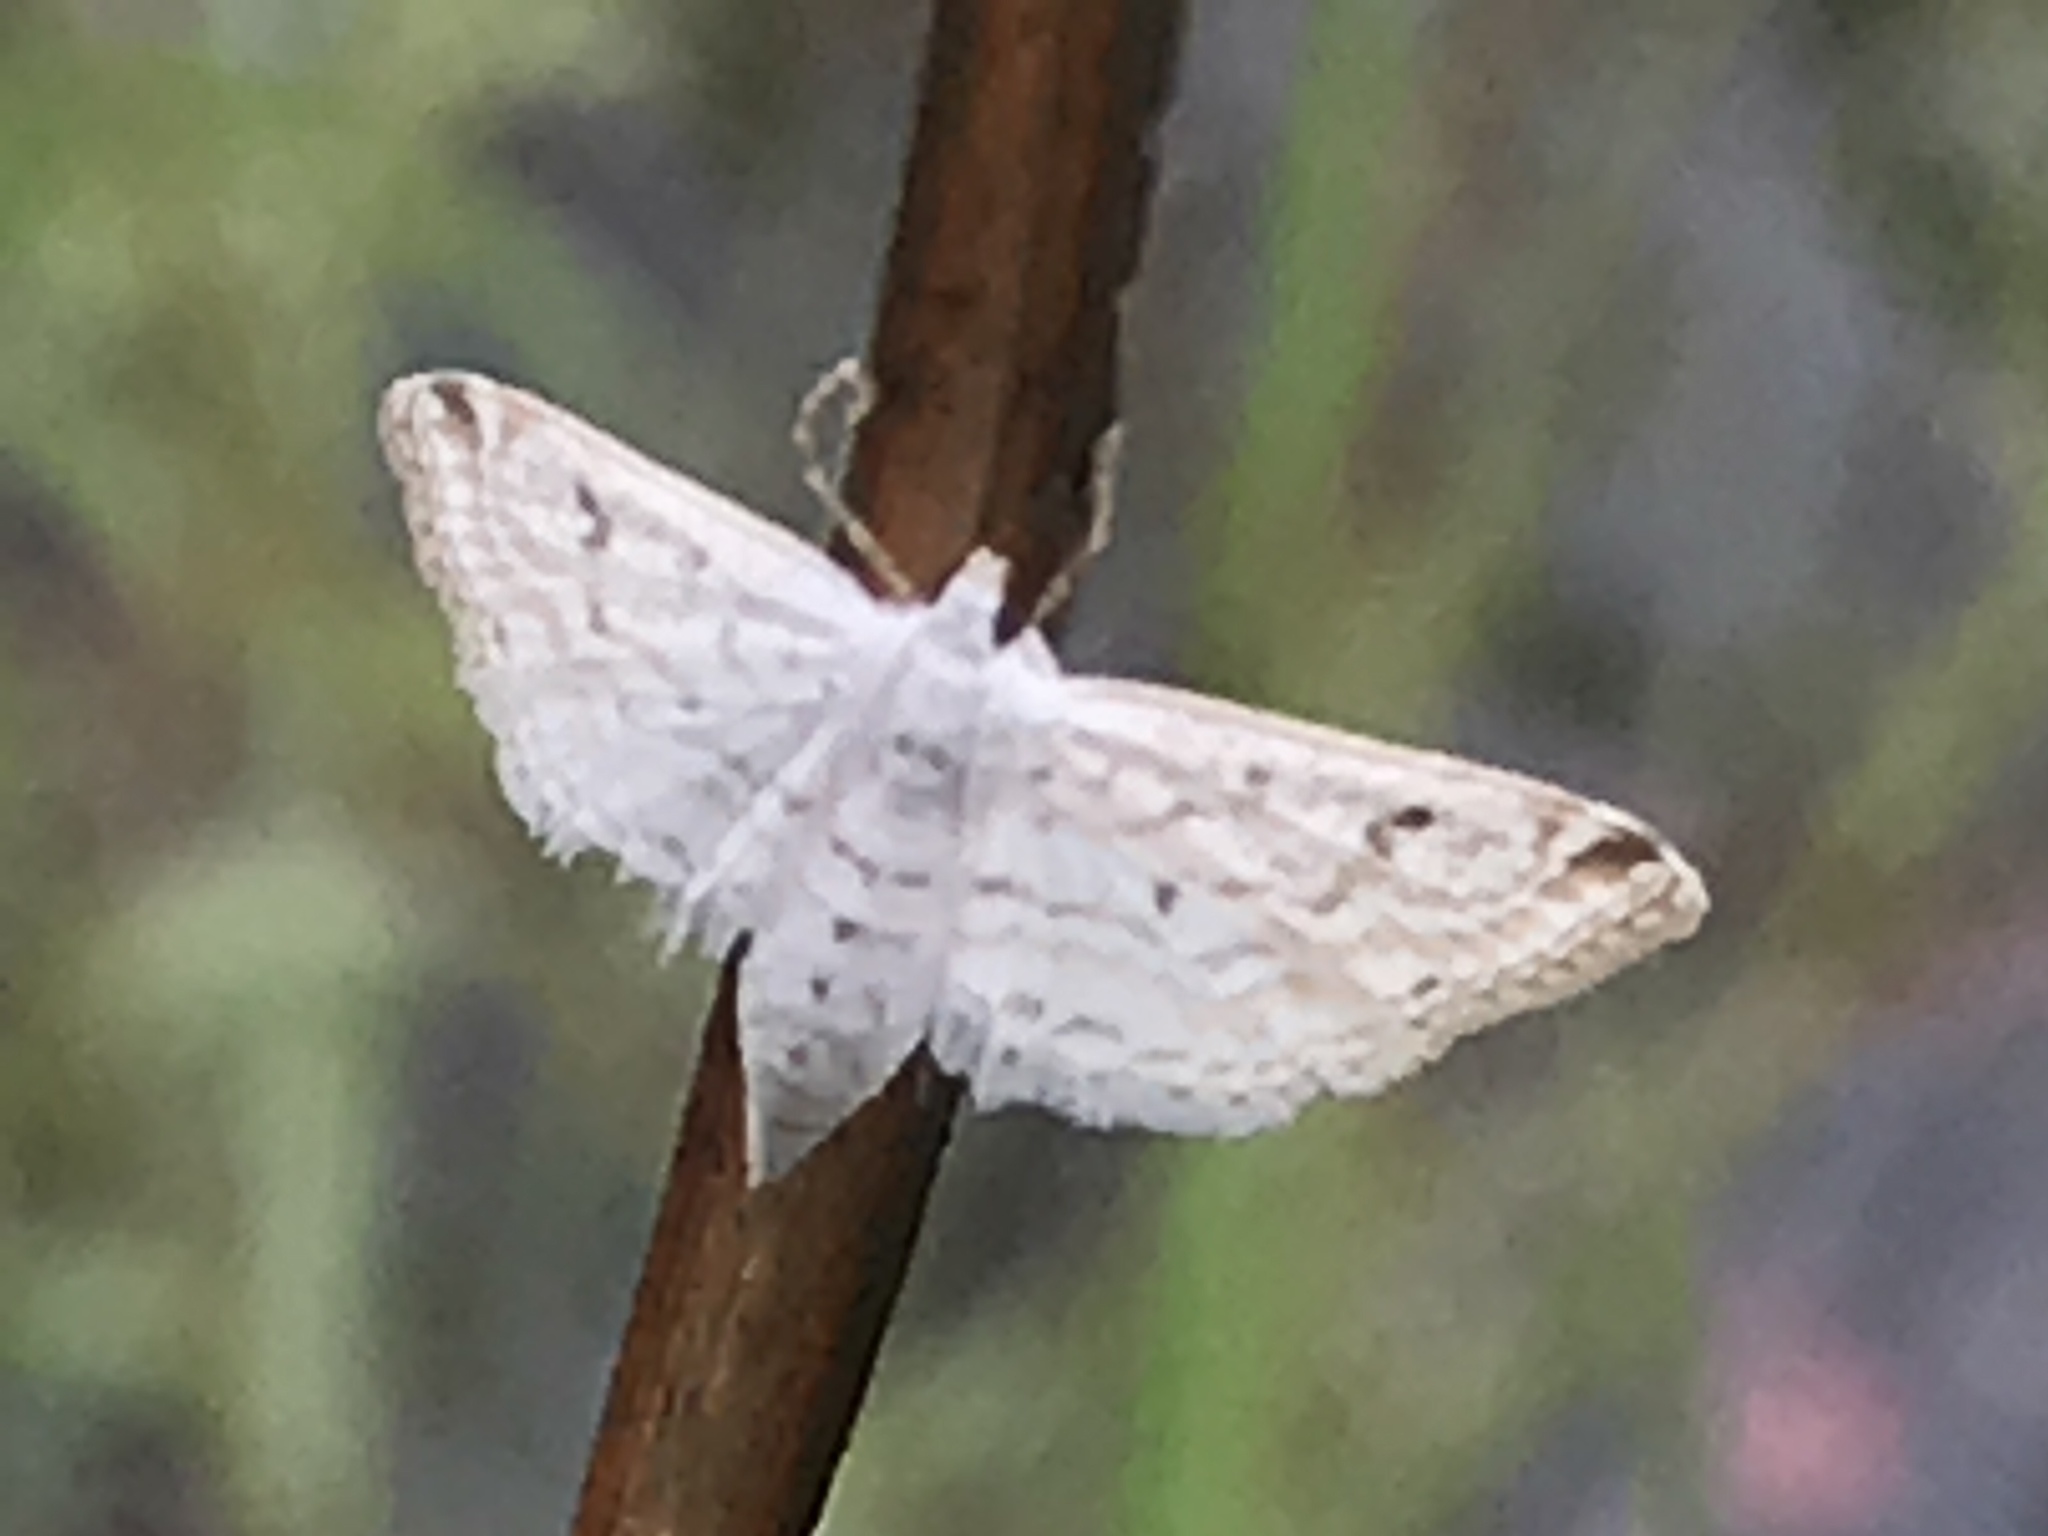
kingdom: Animalia
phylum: Arthropoda
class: Insecta
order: Lepidoptera
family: Crambidae
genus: Parapoynx
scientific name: Parapoynx allionealis
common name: Bladderwort casemaker
